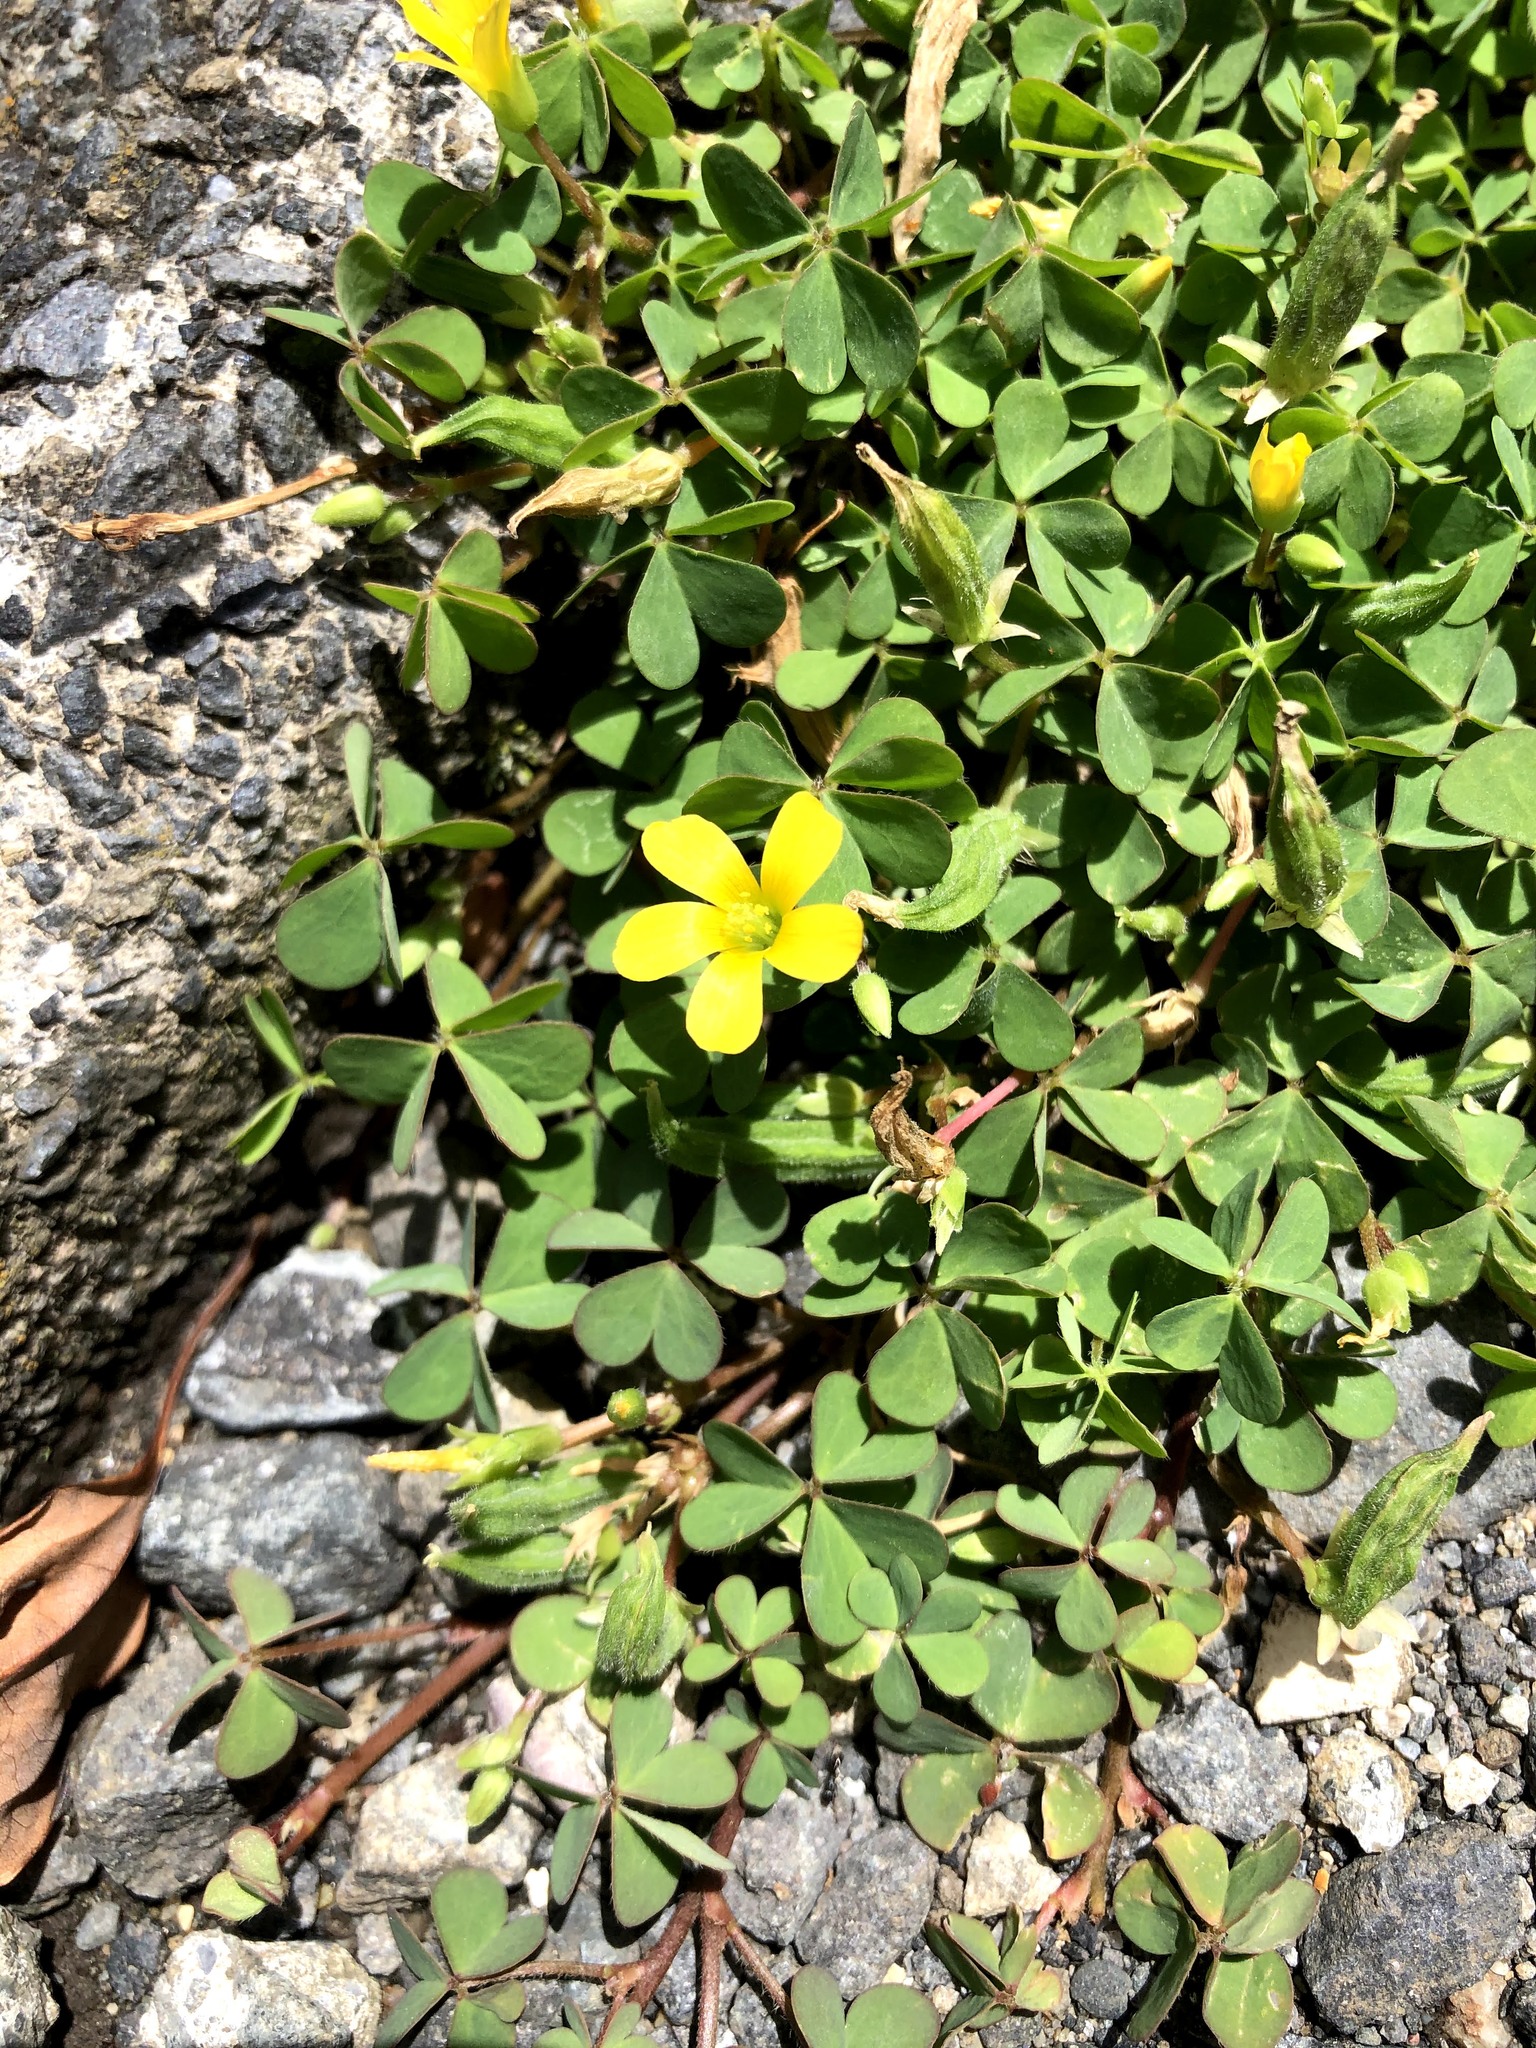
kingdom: Plantae
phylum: Tracheophyta
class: Magnoliopsida
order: Oxalidales
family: Oxalidaceae
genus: Oxalis
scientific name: Oxalis corniculata
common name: Procumbent yellow-sorrel
